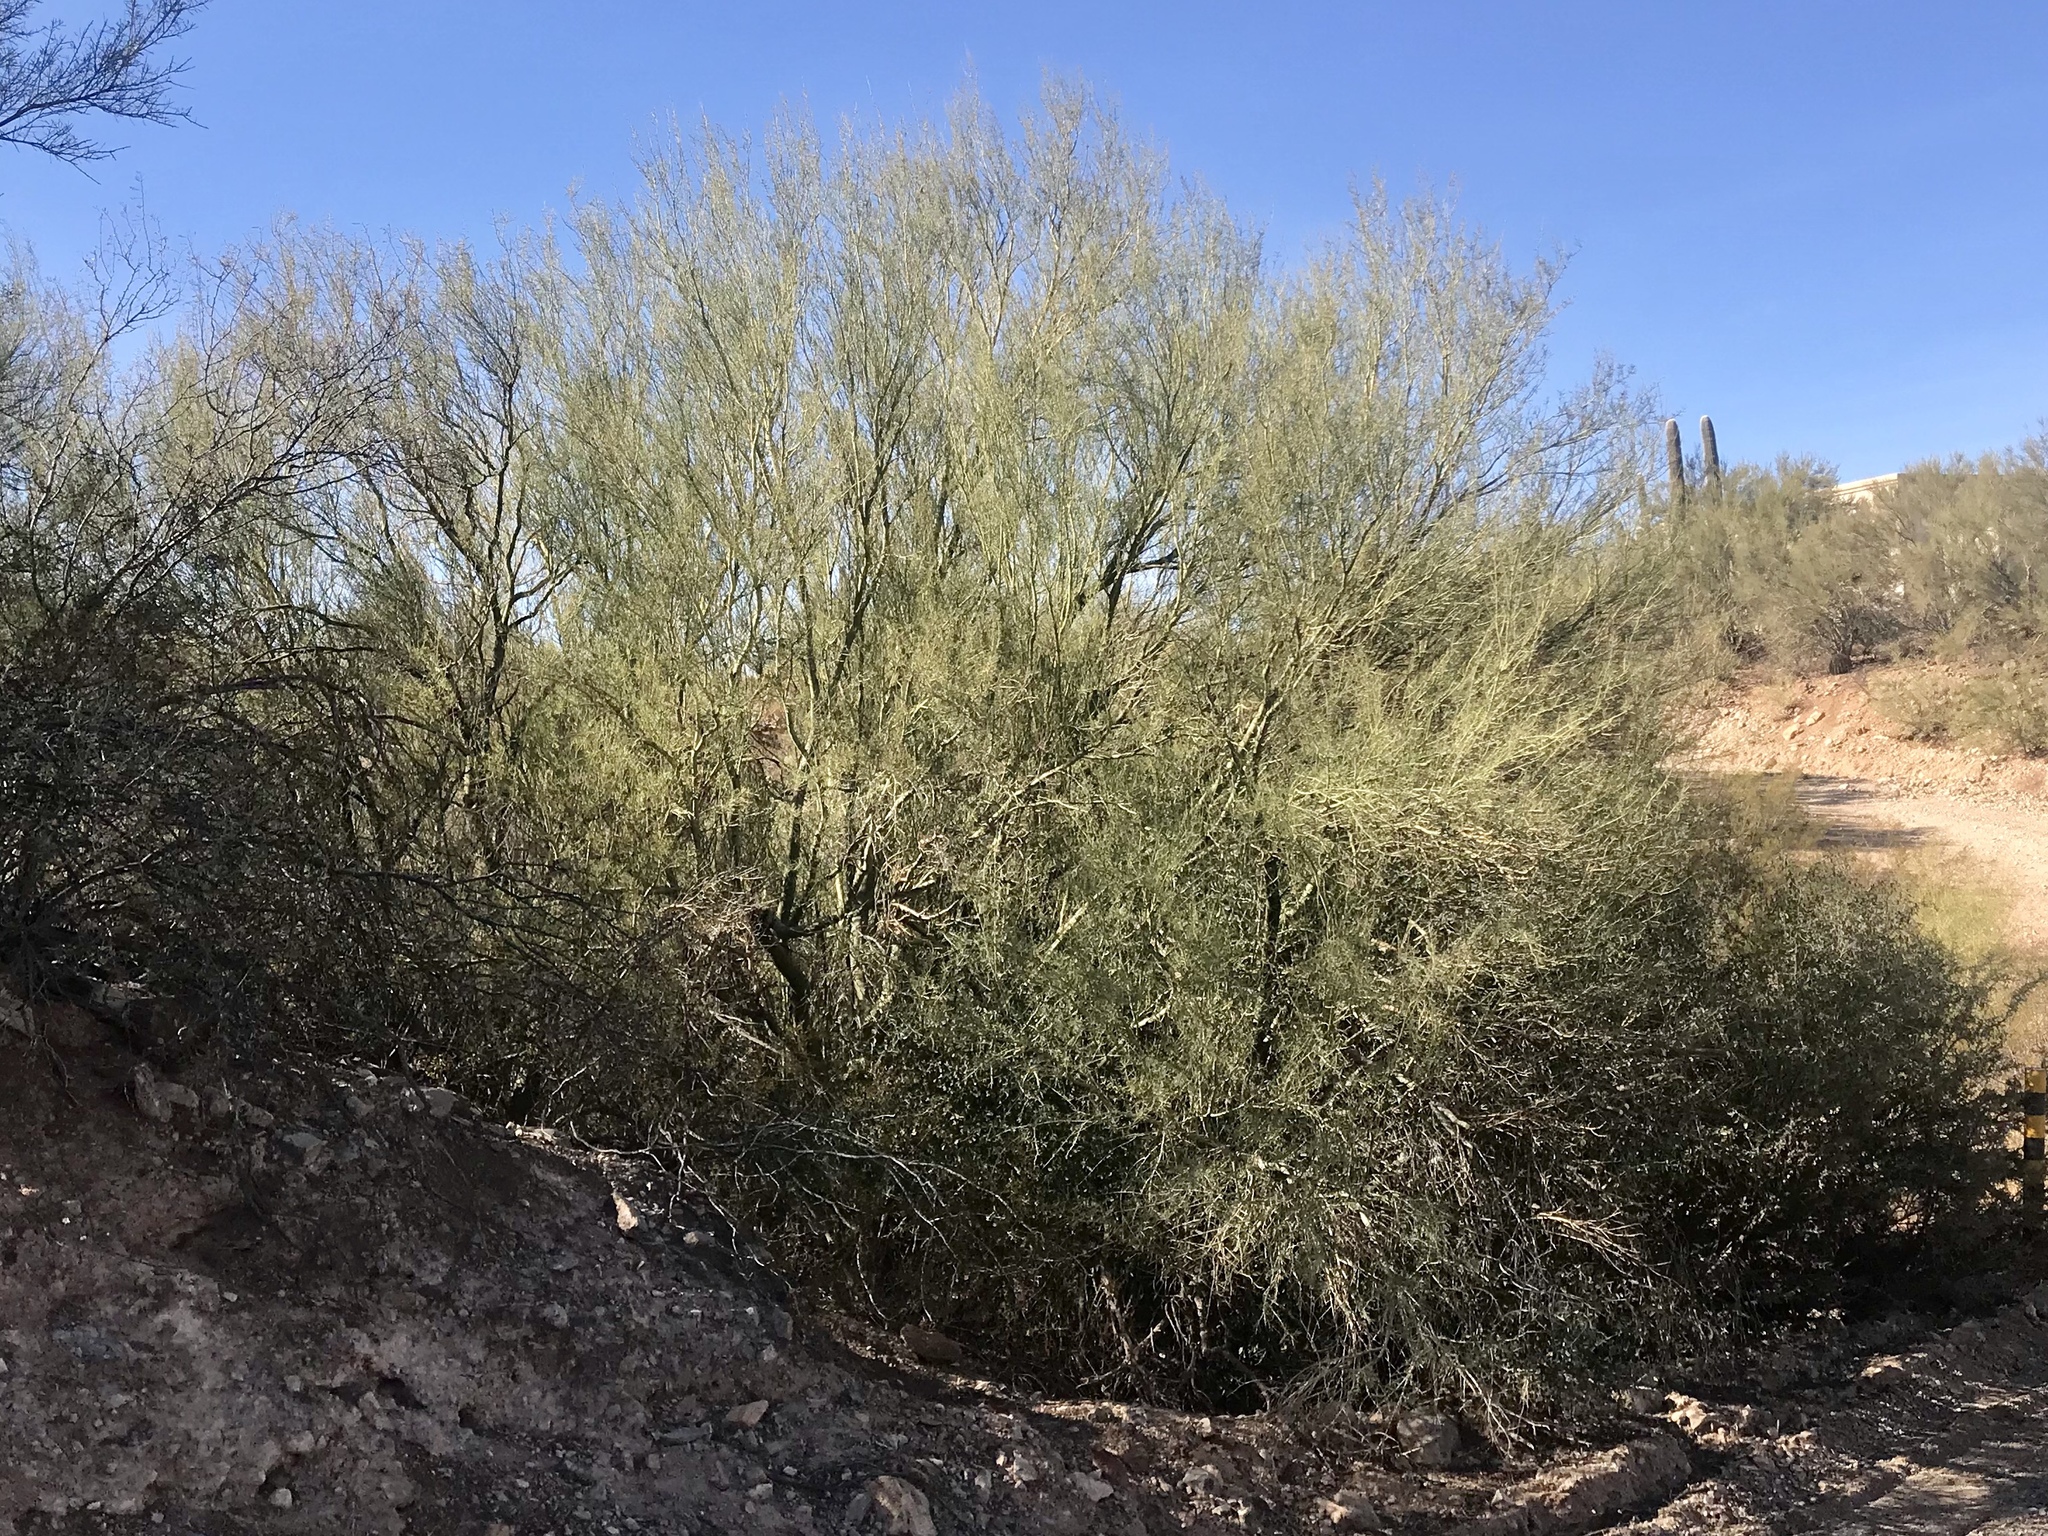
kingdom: Plantae
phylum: Tracheophyta
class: Magnoliopsida
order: Fabales
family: Fabaceae
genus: Parkinsonia
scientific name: Parkinsonia microphylla
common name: Yellow paloverde
